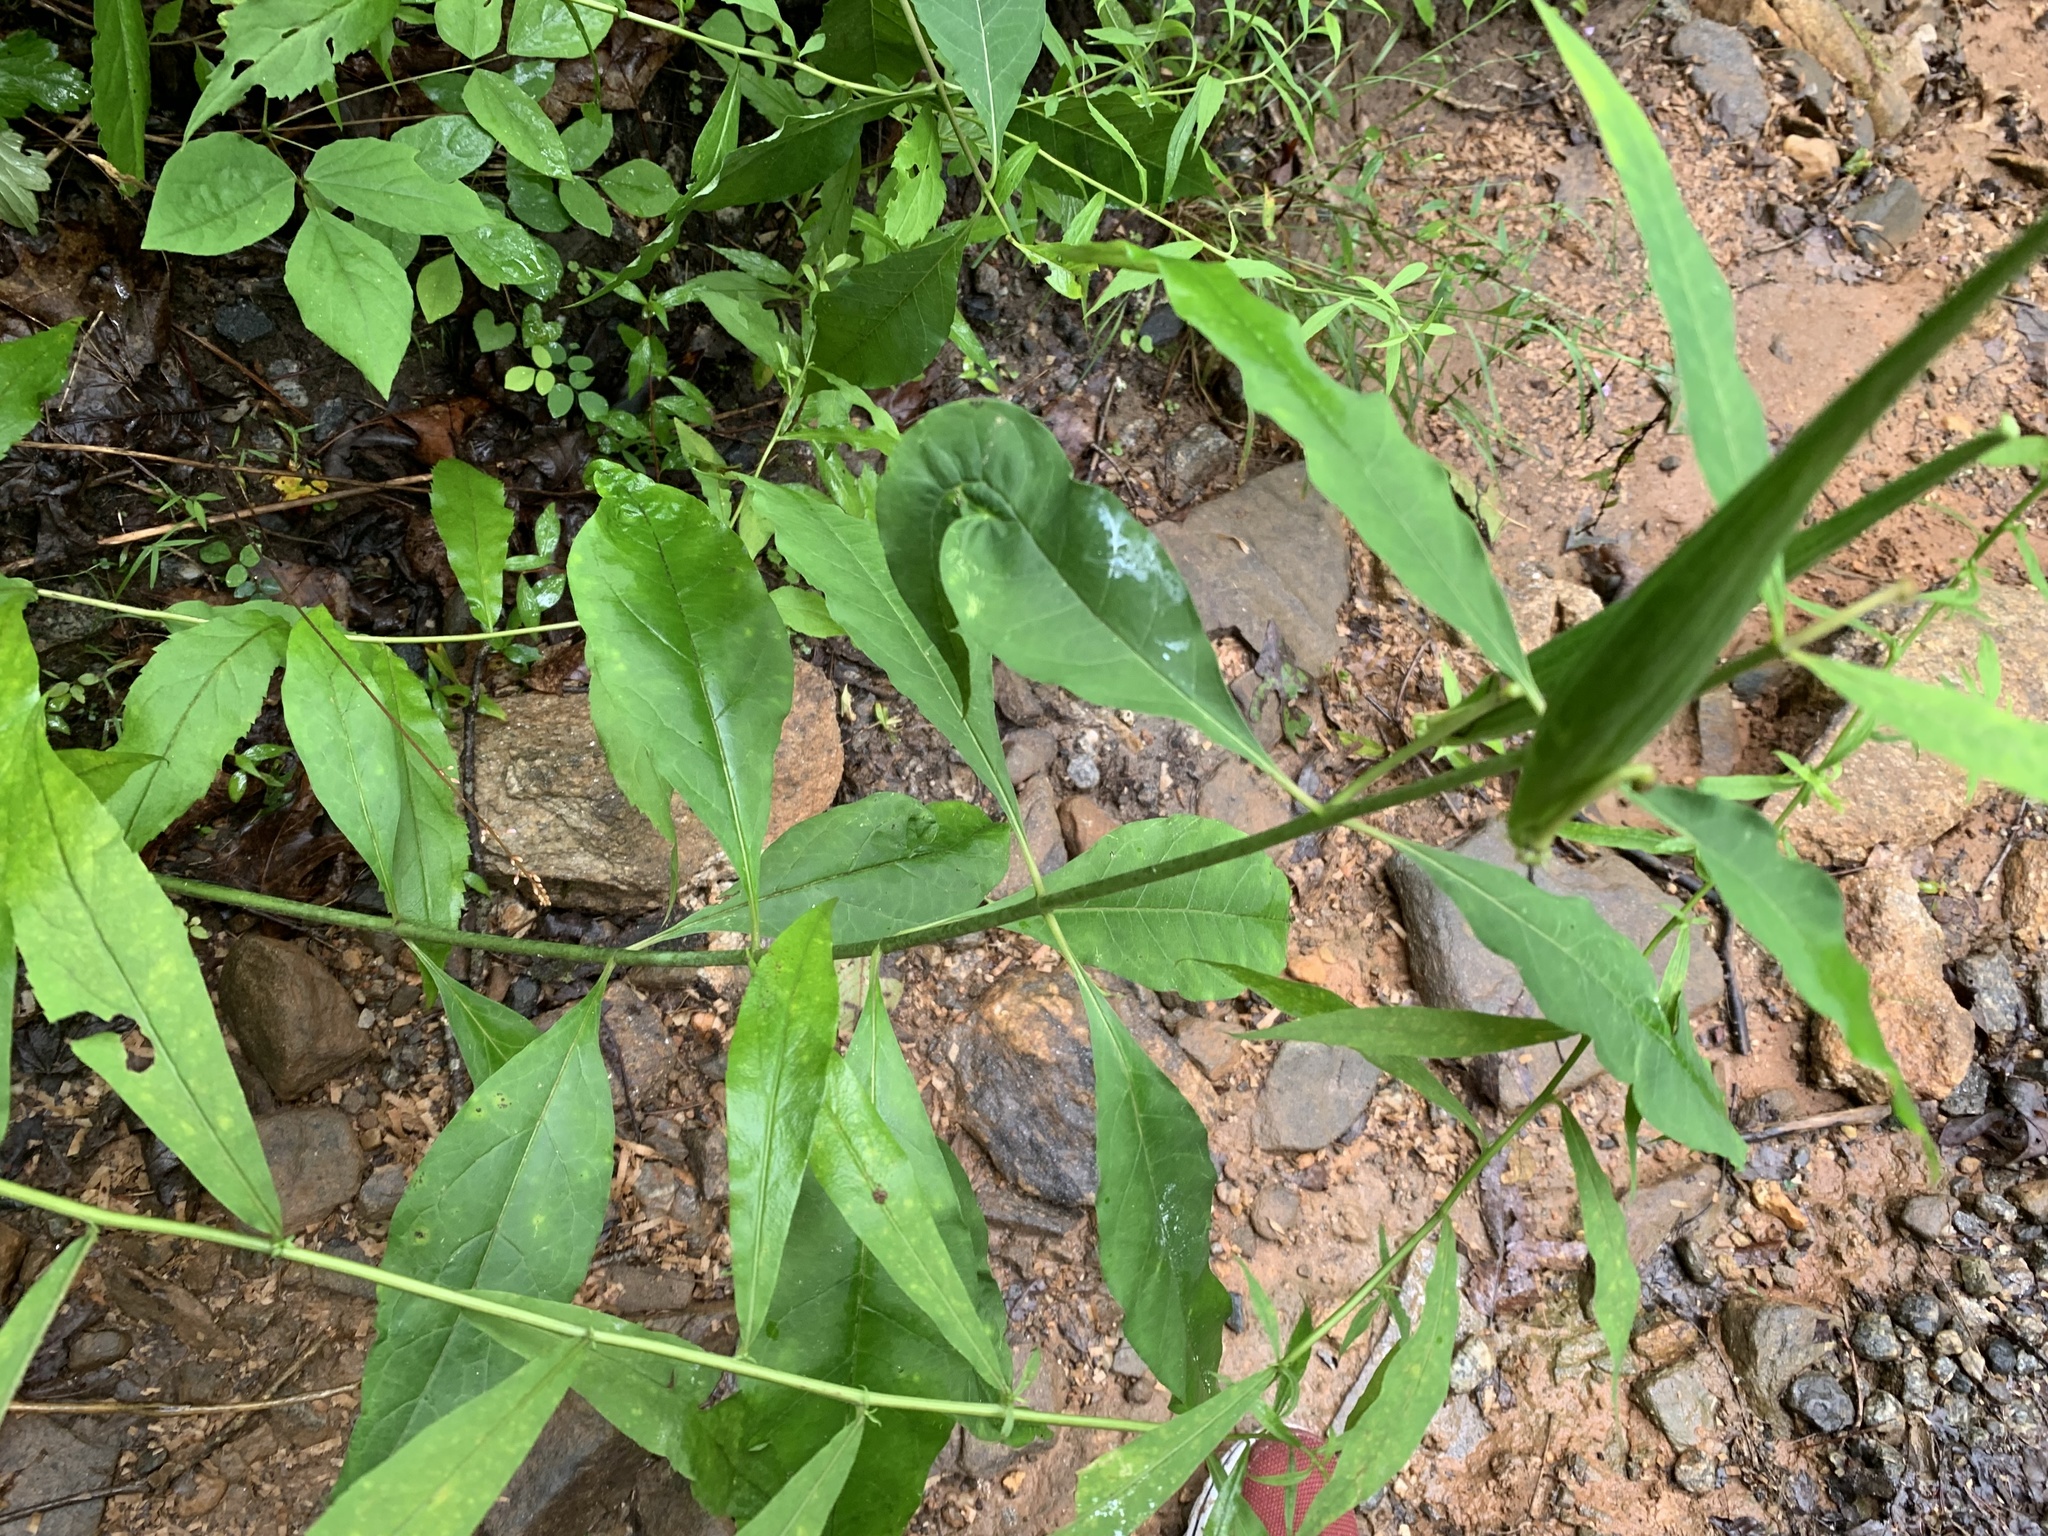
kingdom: Plantae
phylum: Tracheophyta
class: Magnoliopsida
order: Gentianales
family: Apocynaceae
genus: Asclepias
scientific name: Asclepias exaltata
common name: Poke milkweed
